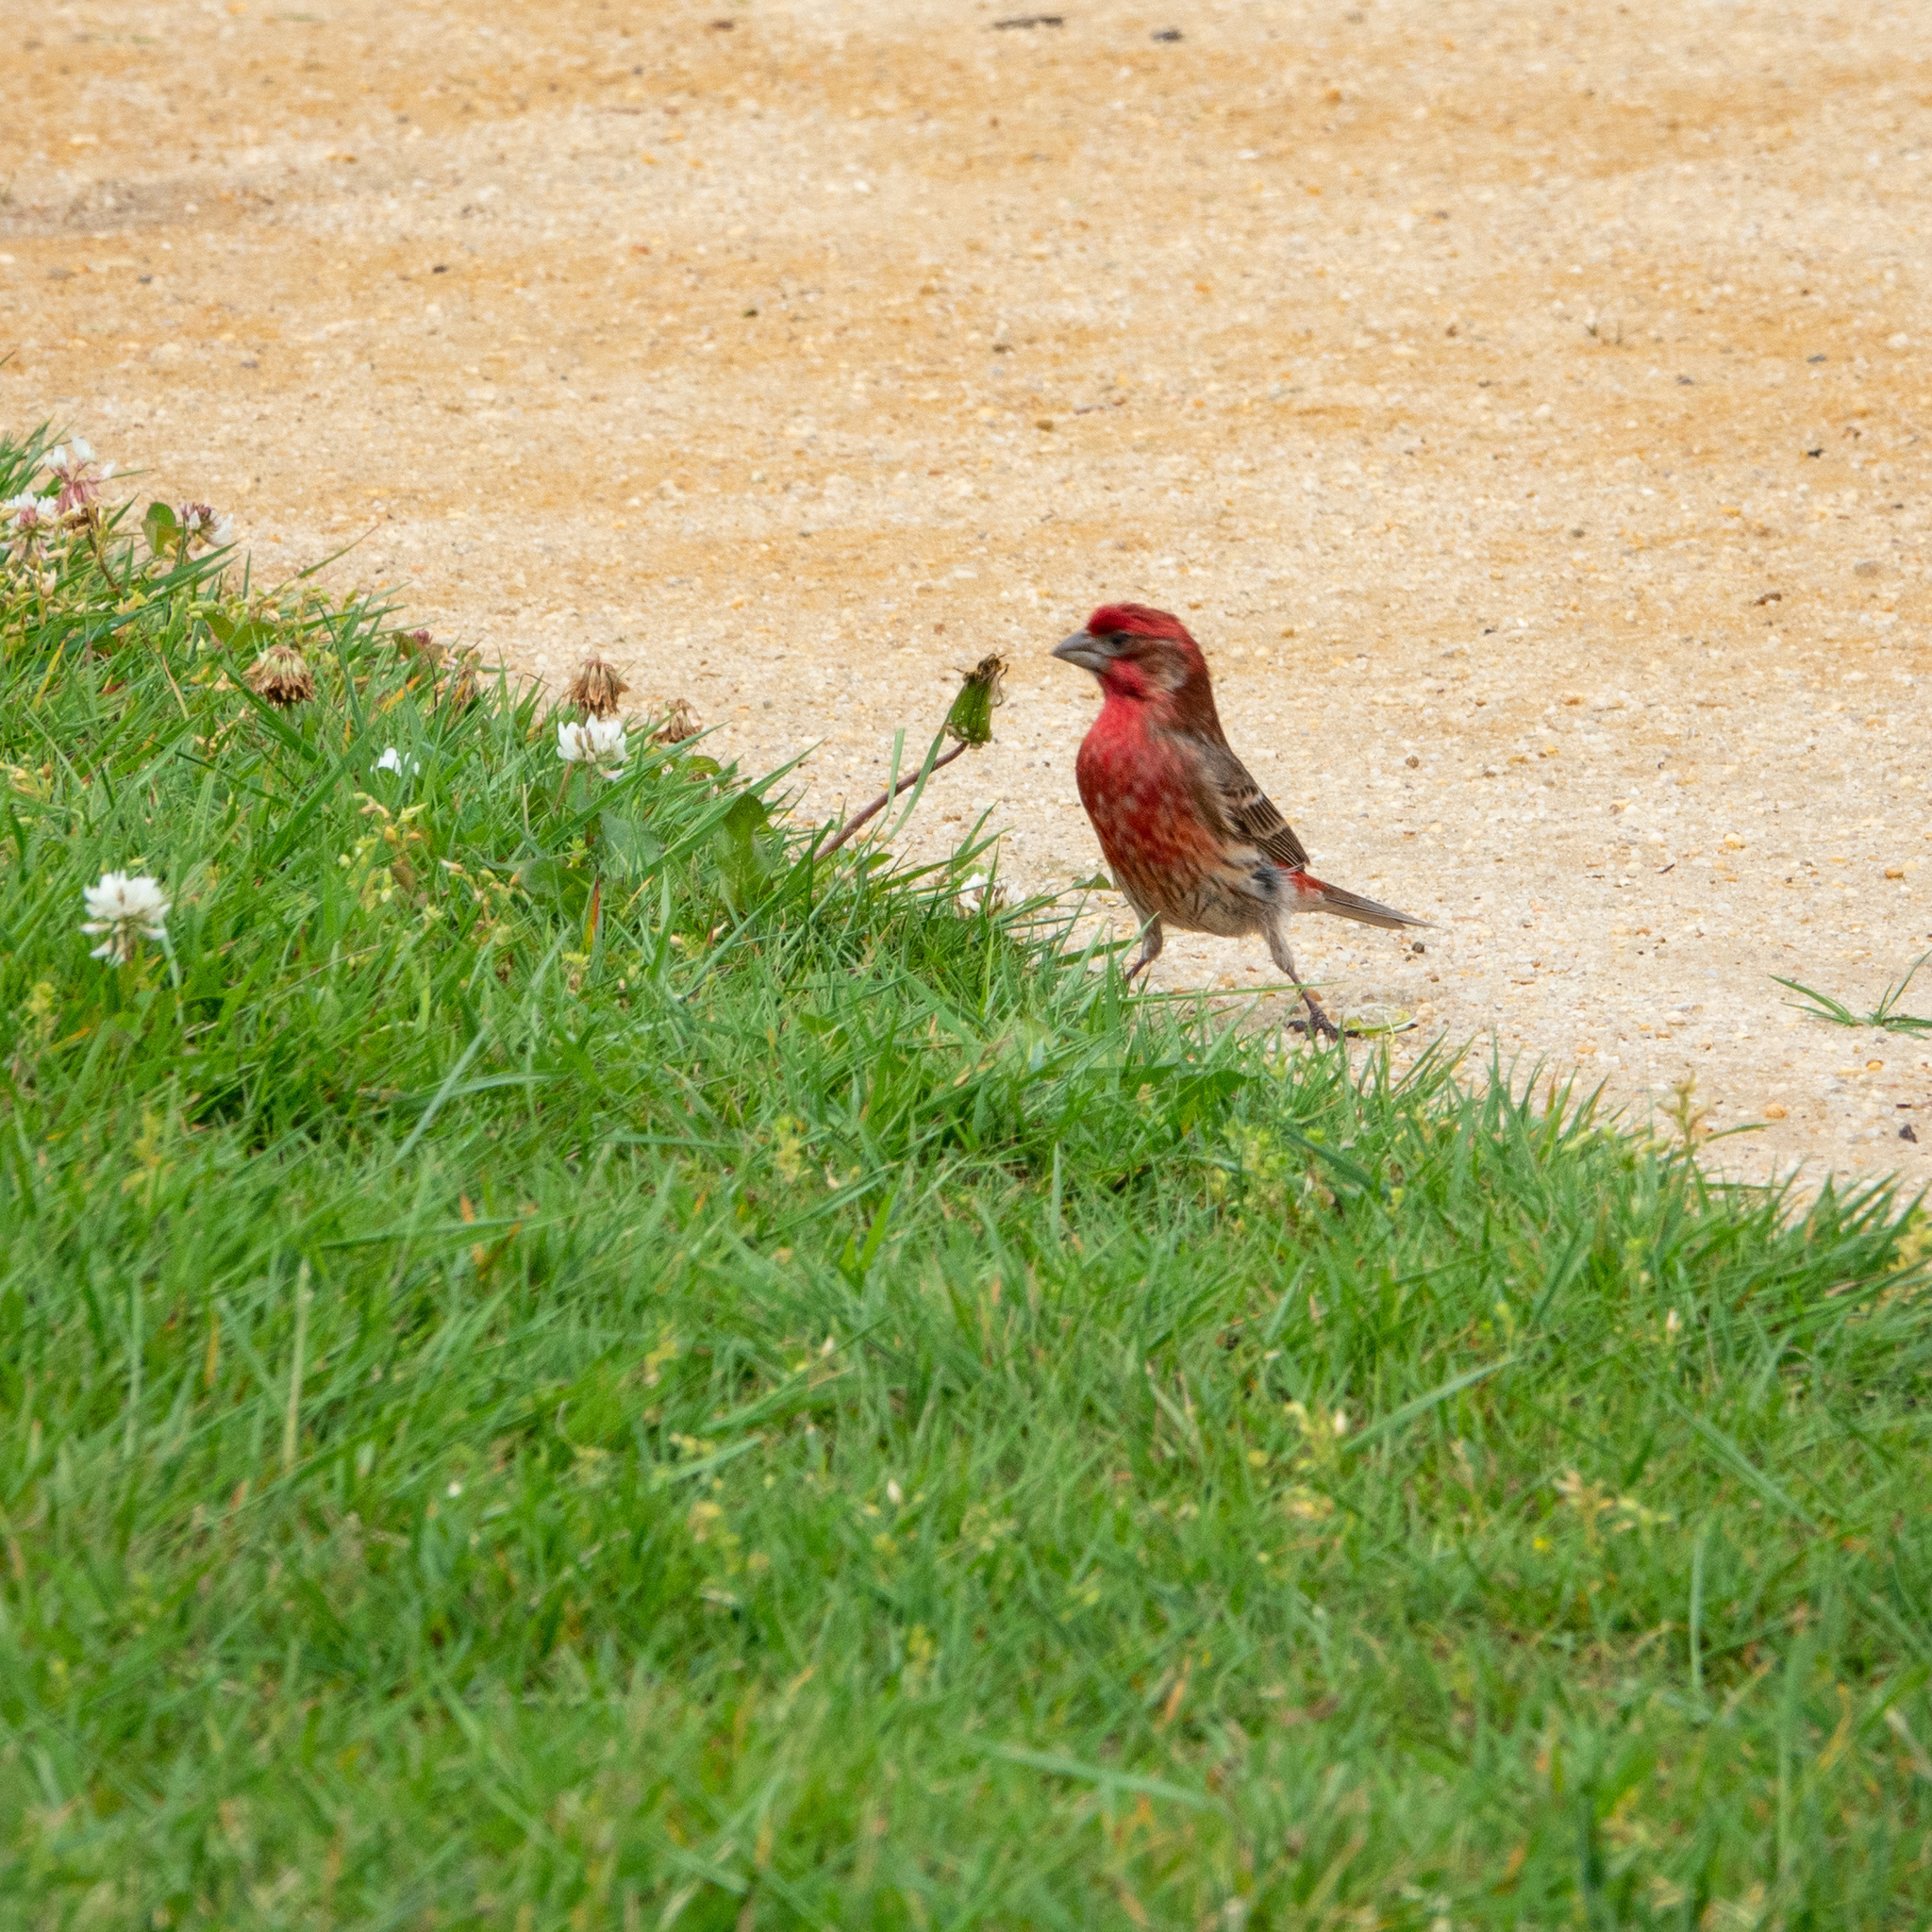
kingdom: Animalia
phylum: Chordata
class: Aves
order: Passeriformes
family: Fringillidae
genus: Haemorhous
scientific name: Haemorhous mexicanus
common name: House finch
